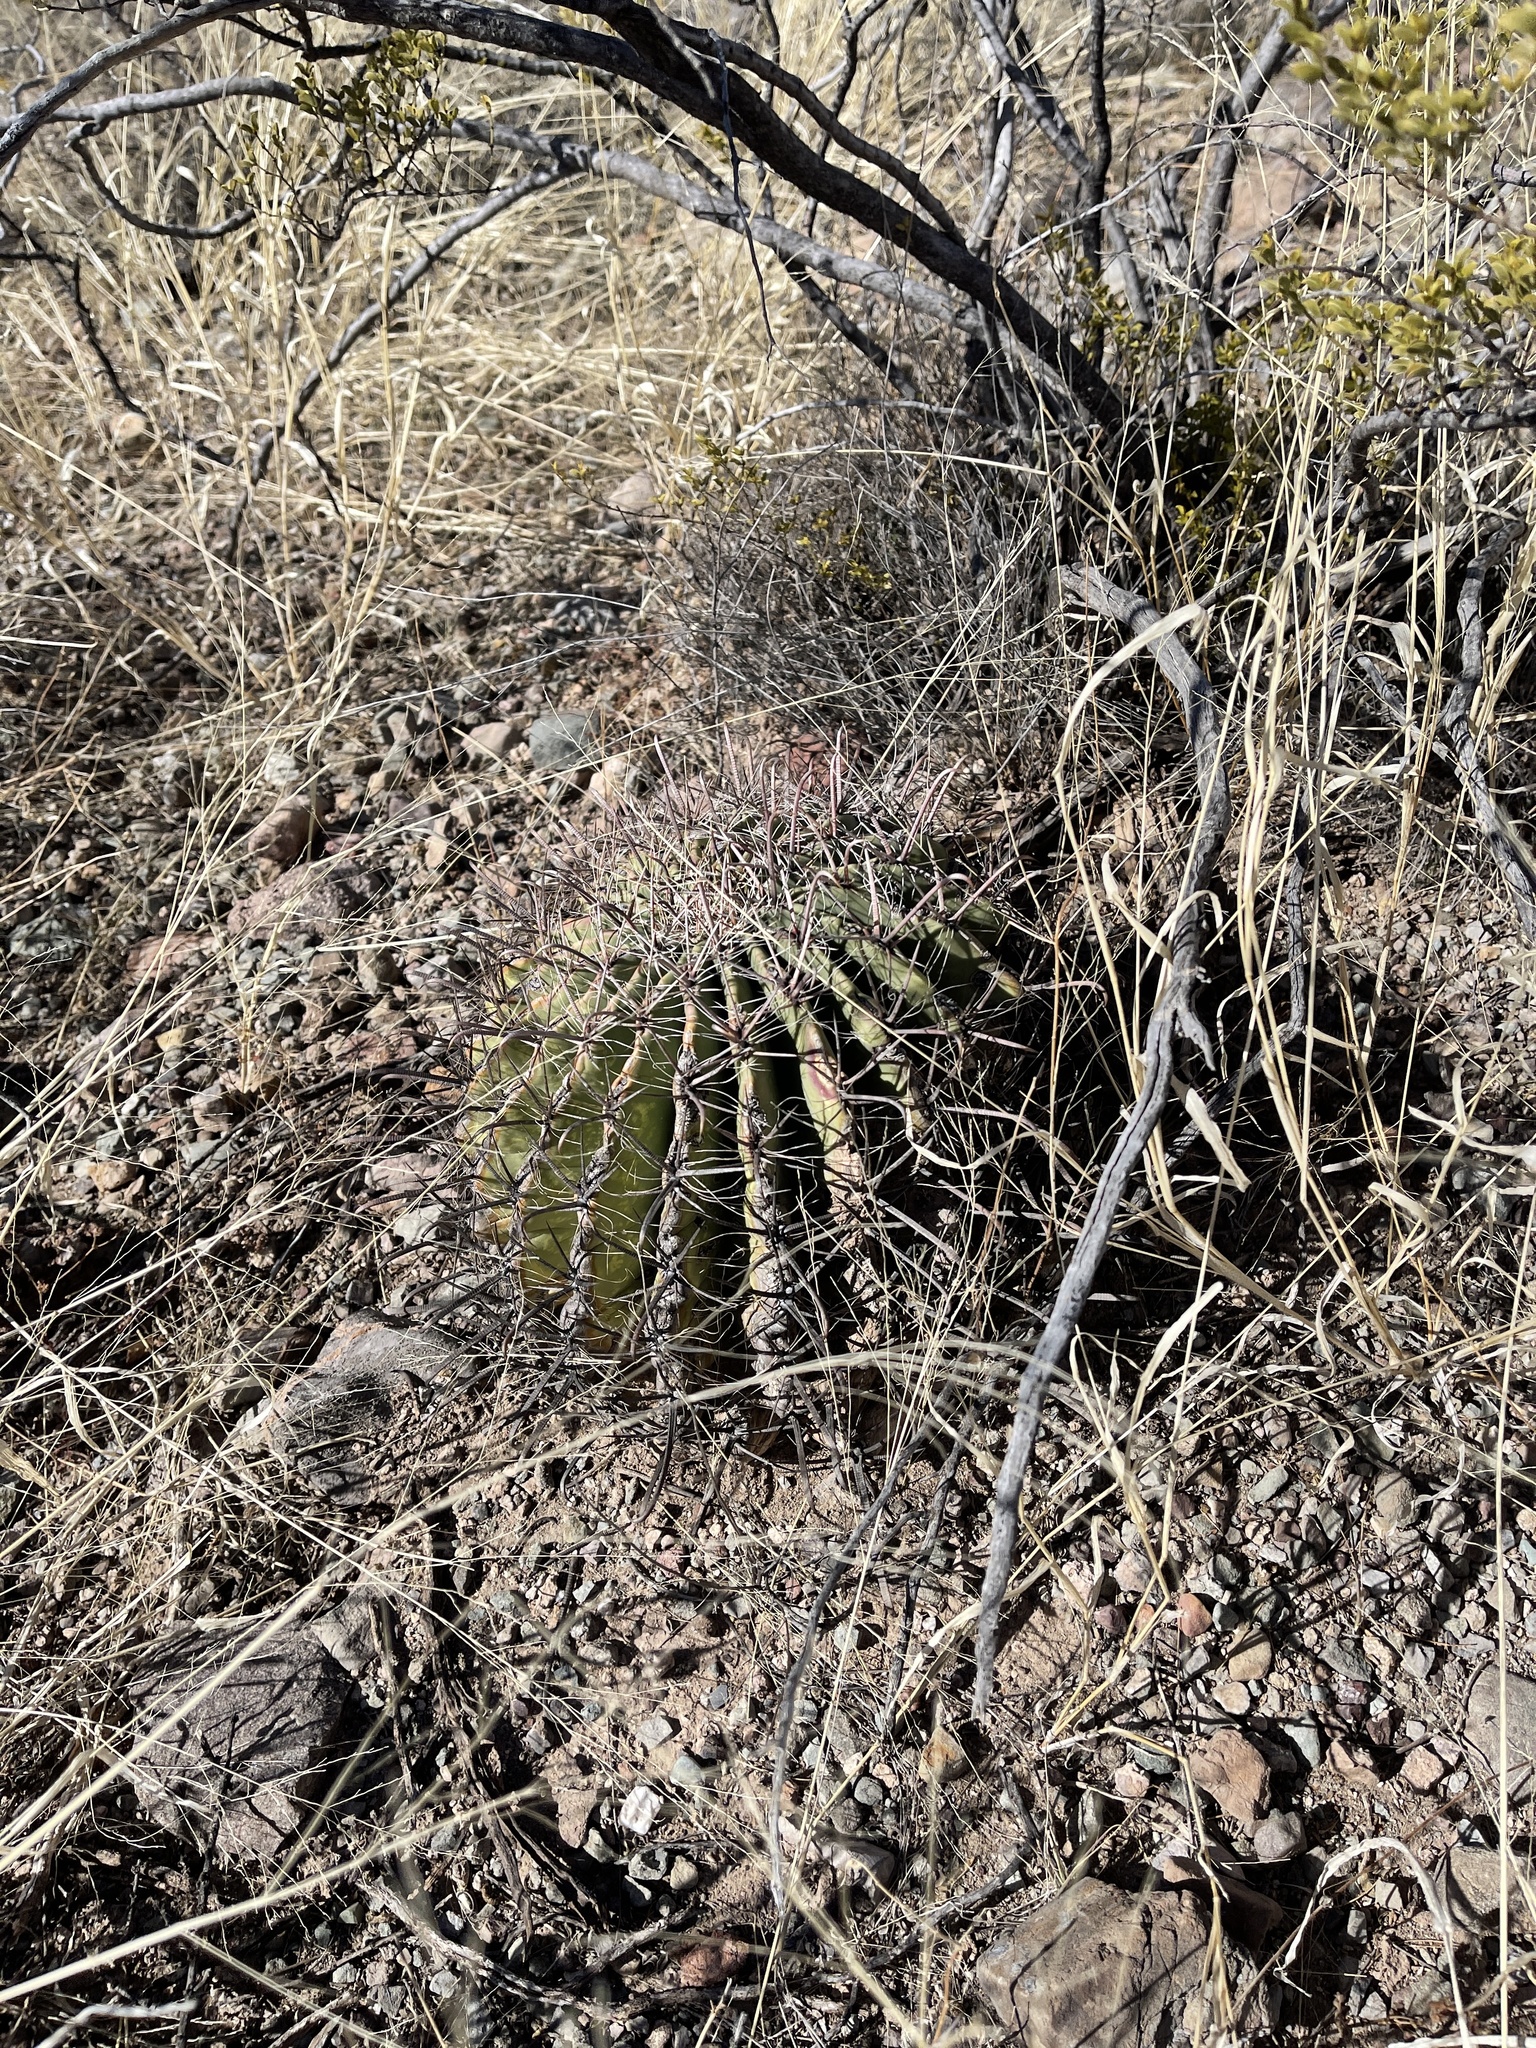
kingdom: Plantae
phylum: Tracheophyta
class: Magnoliopsida
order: Caryophyllales
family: Cactaceae
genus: Ferocactus
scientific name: Ferocactus wislizeni
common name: Candy barrel cactus
